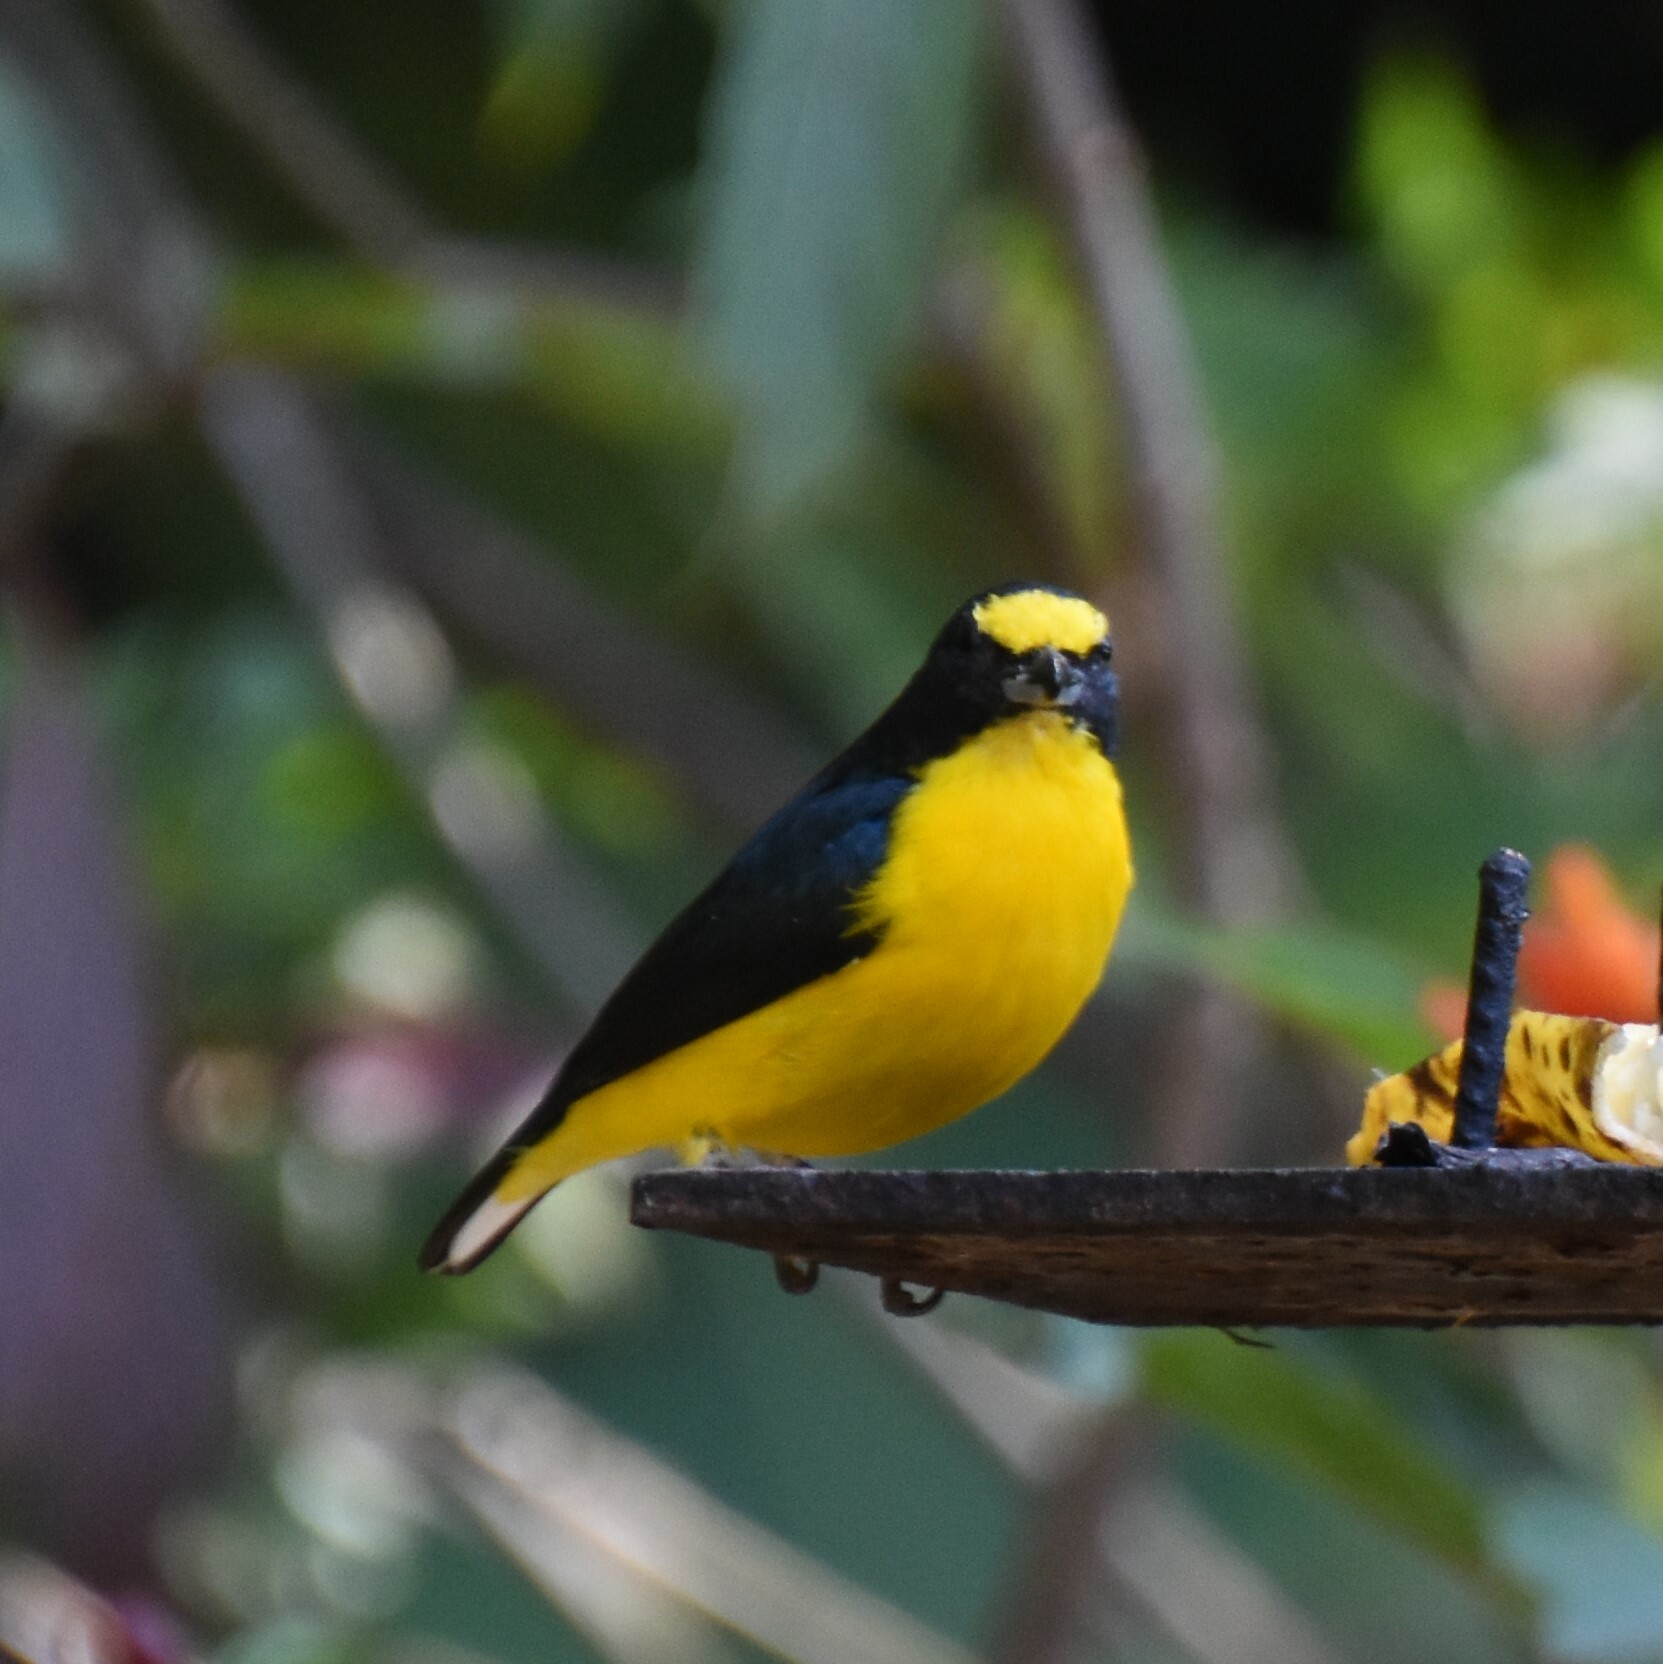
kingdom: Animalia
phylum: Chordata
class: Aves
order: Passeriformes
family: Fringillidae
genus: Euphonia
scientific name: Euphonia hirundinacea
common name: Yellow-throated euphonia
